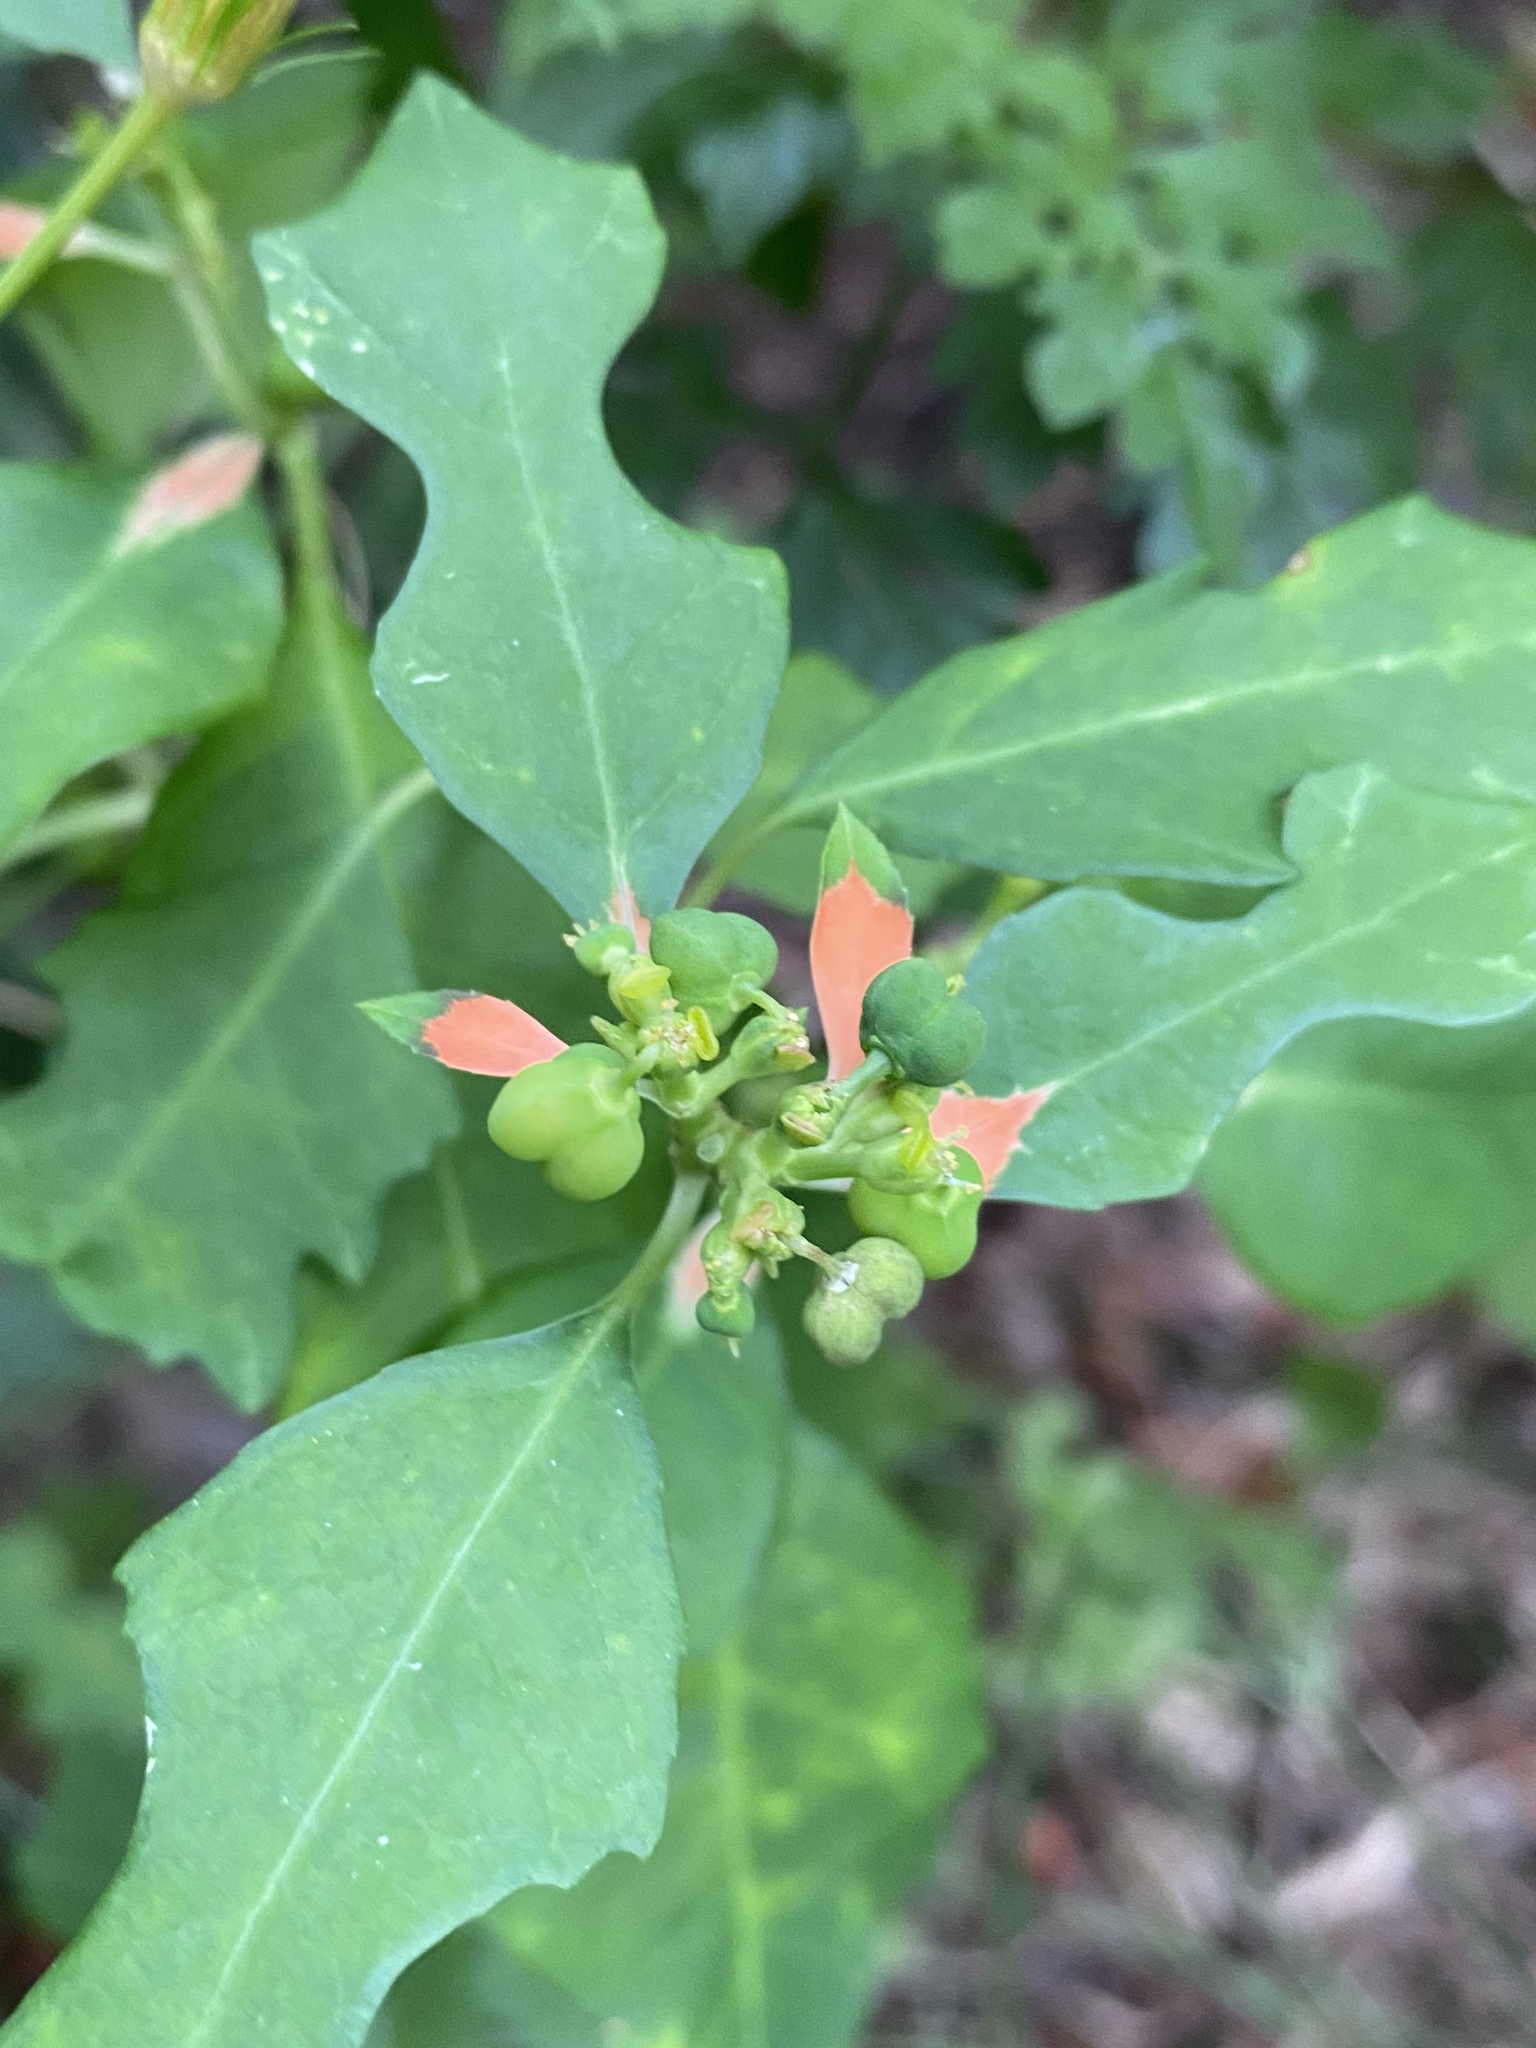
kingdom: Plantae
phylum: Tracheophyta
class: Magnoliopsida
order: Malpighiales
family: Euphorbiaceae
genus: Euphorbia
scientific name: Euphorbia heterophylla
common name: Mexican fireplant
